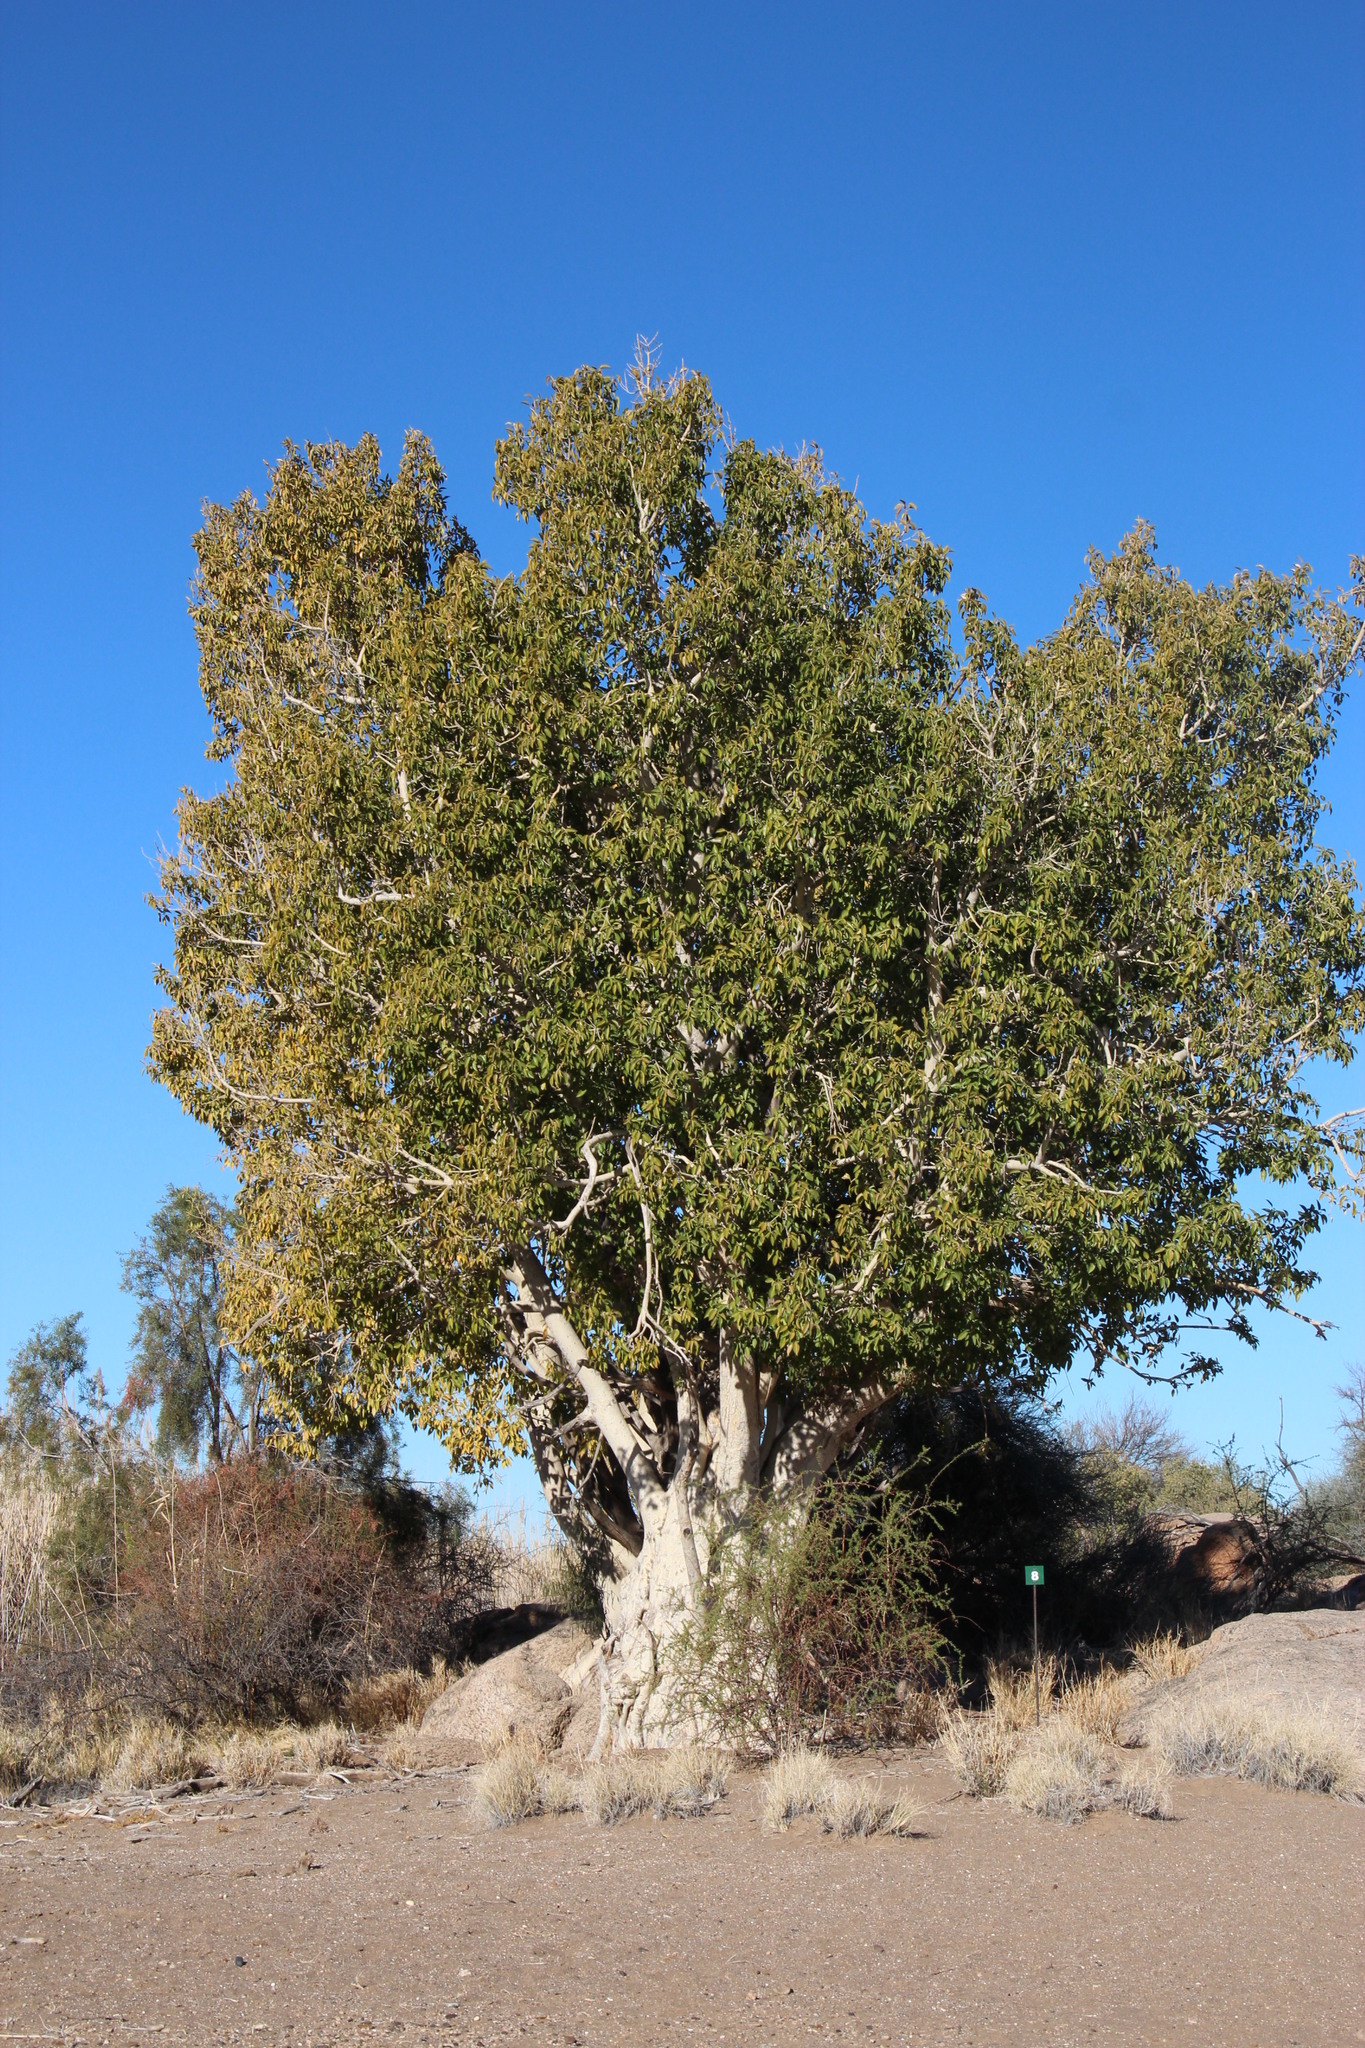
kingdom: Plantae
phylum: Tracheophyta
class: Magnoliopsida
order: Rosales
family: Moraceae
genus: Ficus
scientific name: Ficus cordata
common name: Namaqua rock fig
